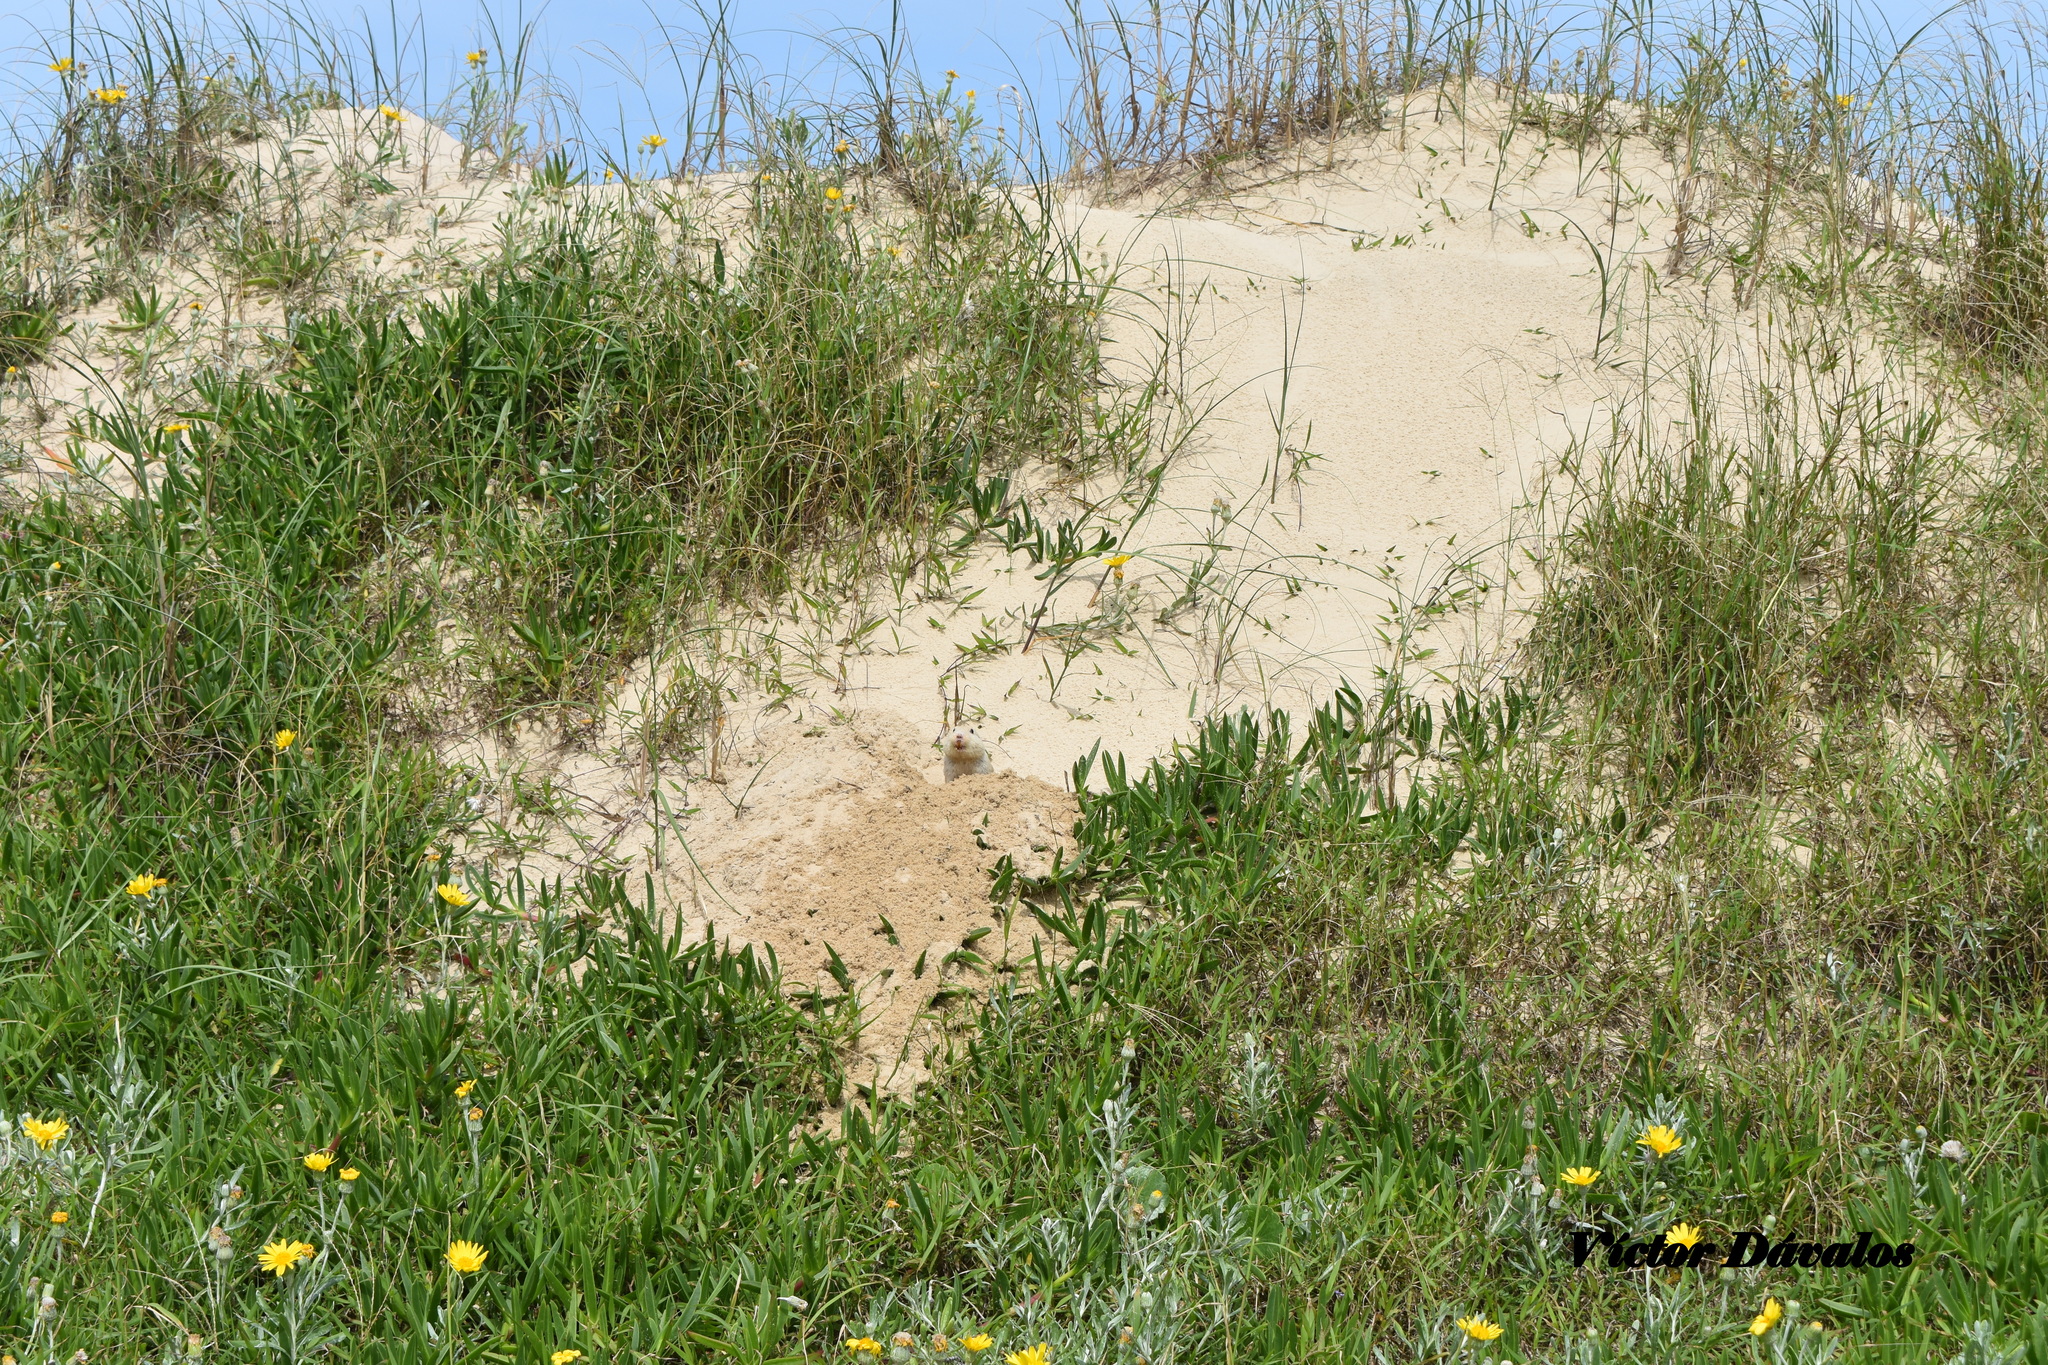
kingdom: Animalia
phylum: Chordata
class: Mammalia
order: Rodentia
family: Ctenomyidae
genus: Ctenomys
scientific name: Ctenomys flamarioni
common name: Tuco-tuco of the dunes
